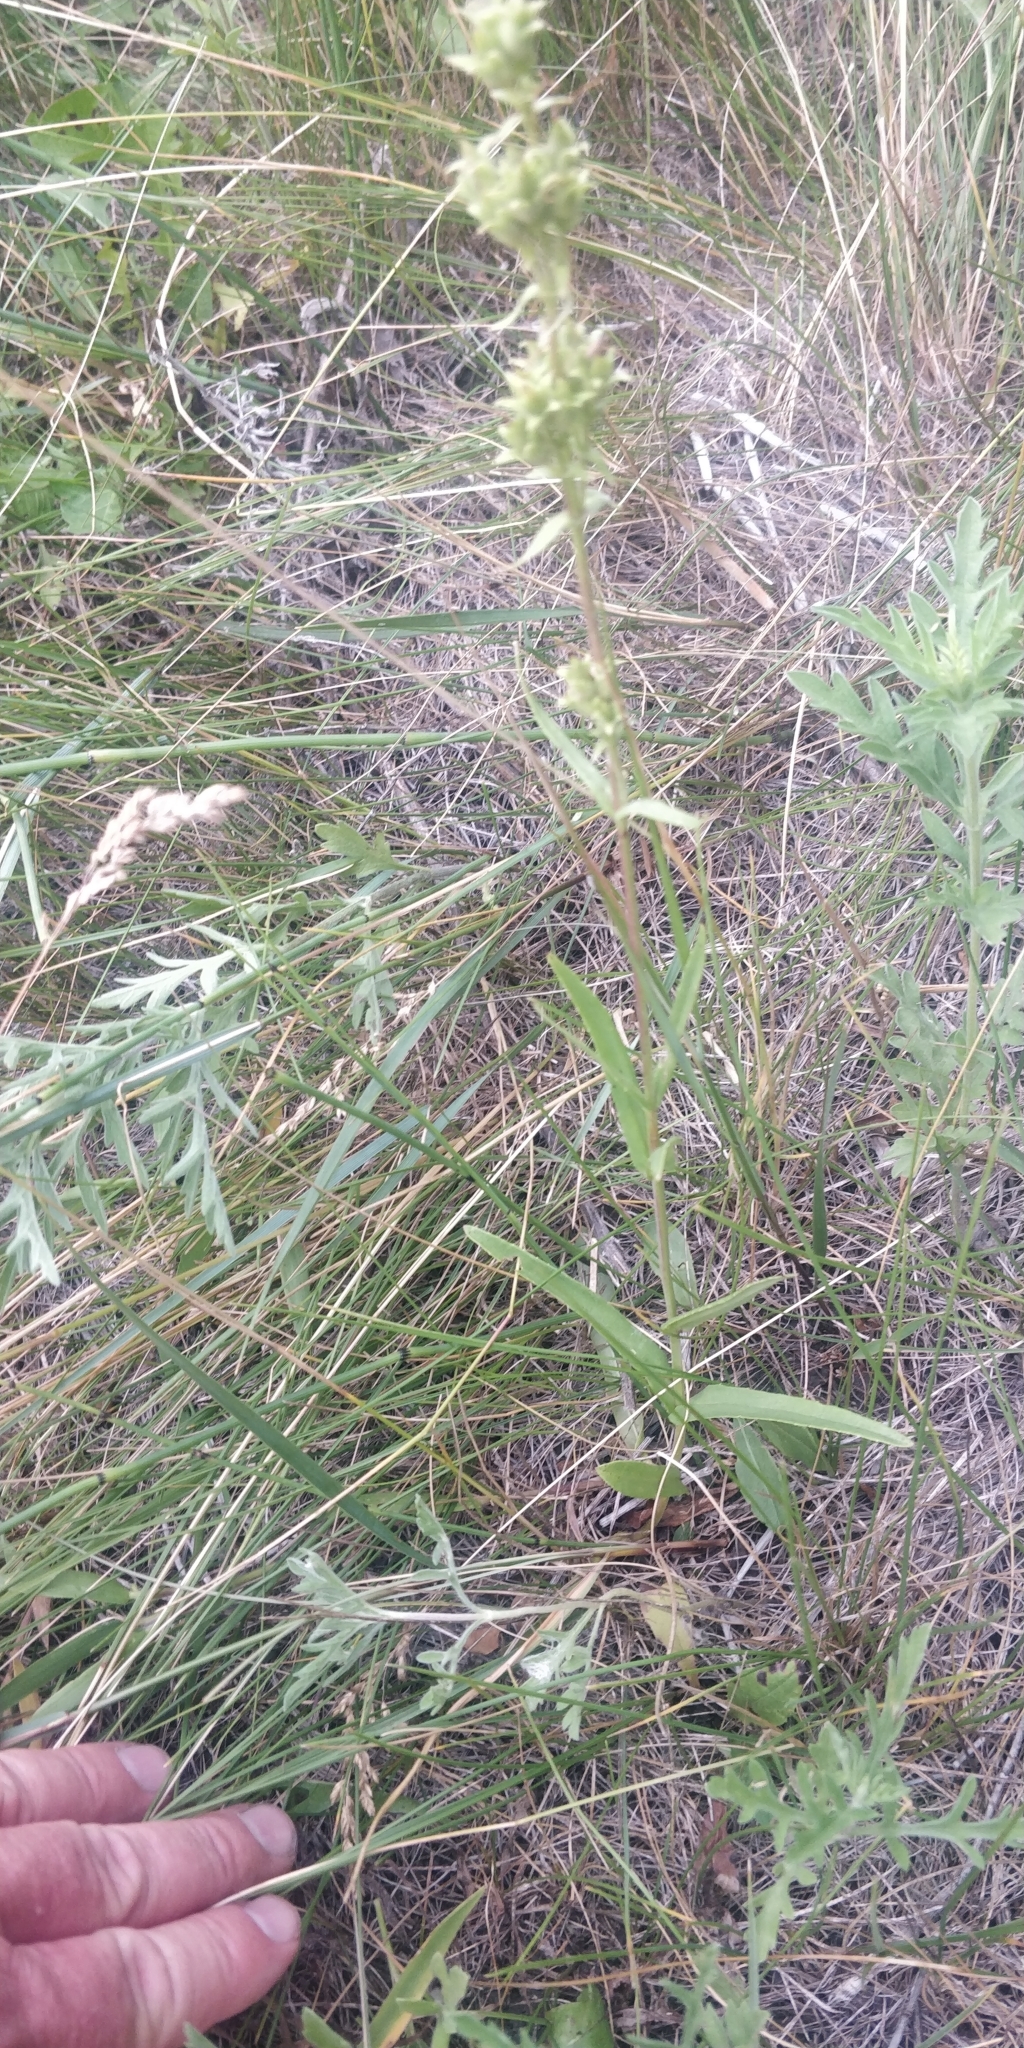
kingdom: Plantae
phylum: Tracheophyta
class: Magnoliopsida
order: Lamiales
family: Plantaginaceae
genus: Penstemon
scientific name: Penstemon gracilis
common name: Slender beardtongue
